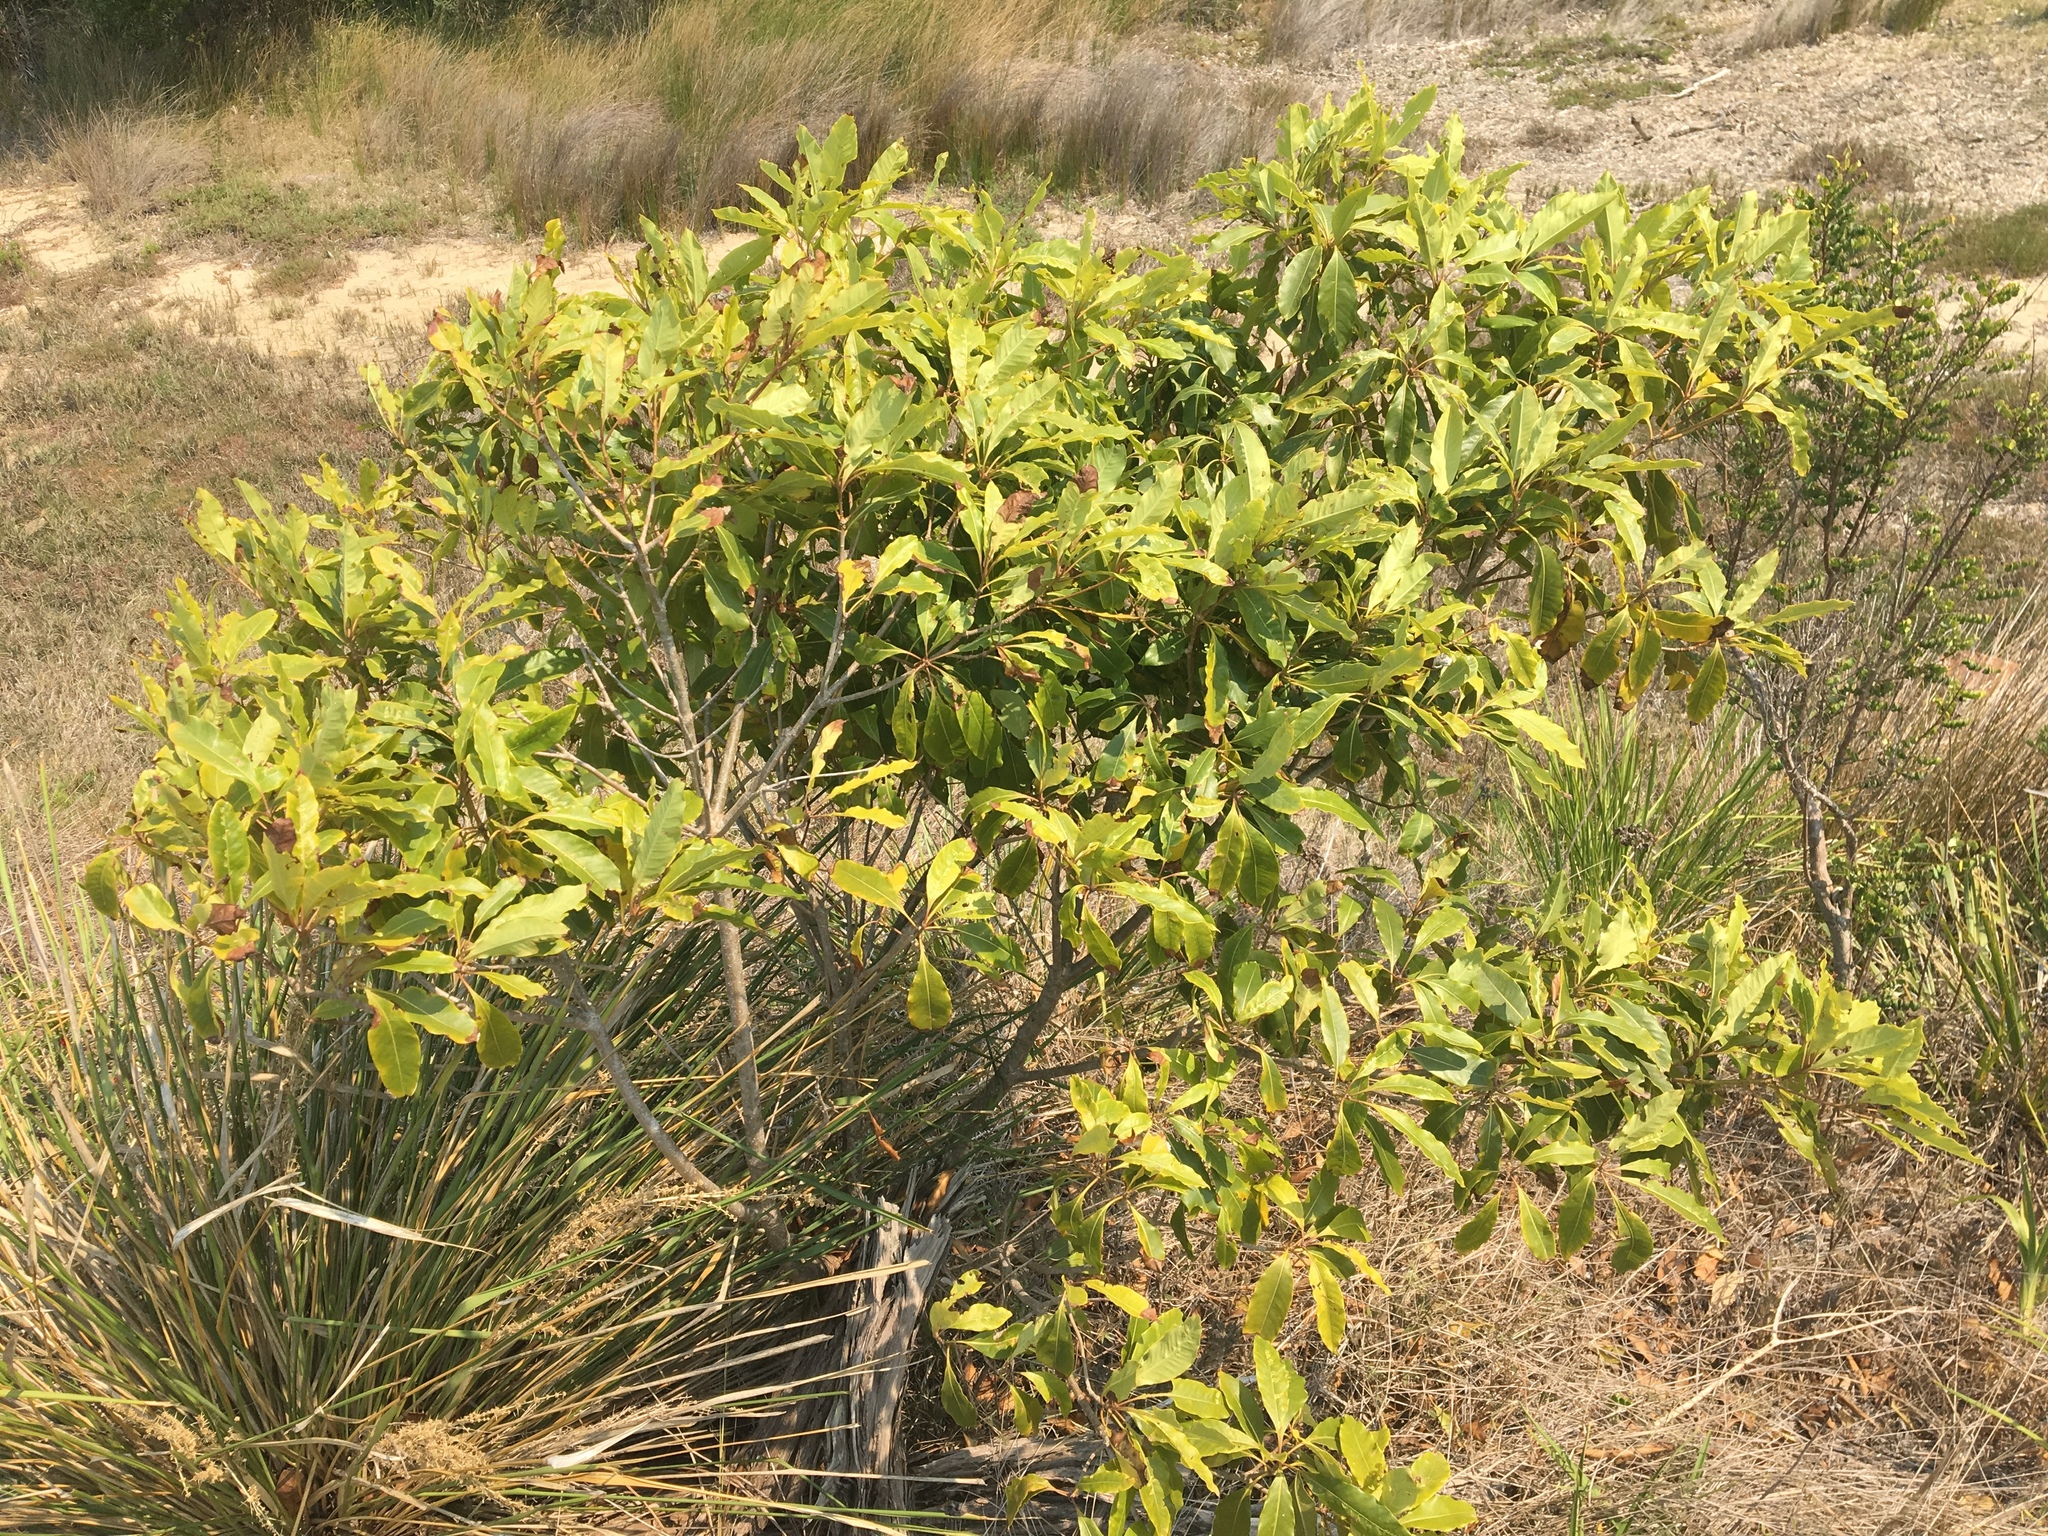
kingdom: Plantae
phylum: Tracheophyta
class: Magnoliopsida
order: Apiales
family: Pittosporaceae
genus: Pittosporum
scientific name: Pittosporum undulatum
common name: Australian cheesewood
